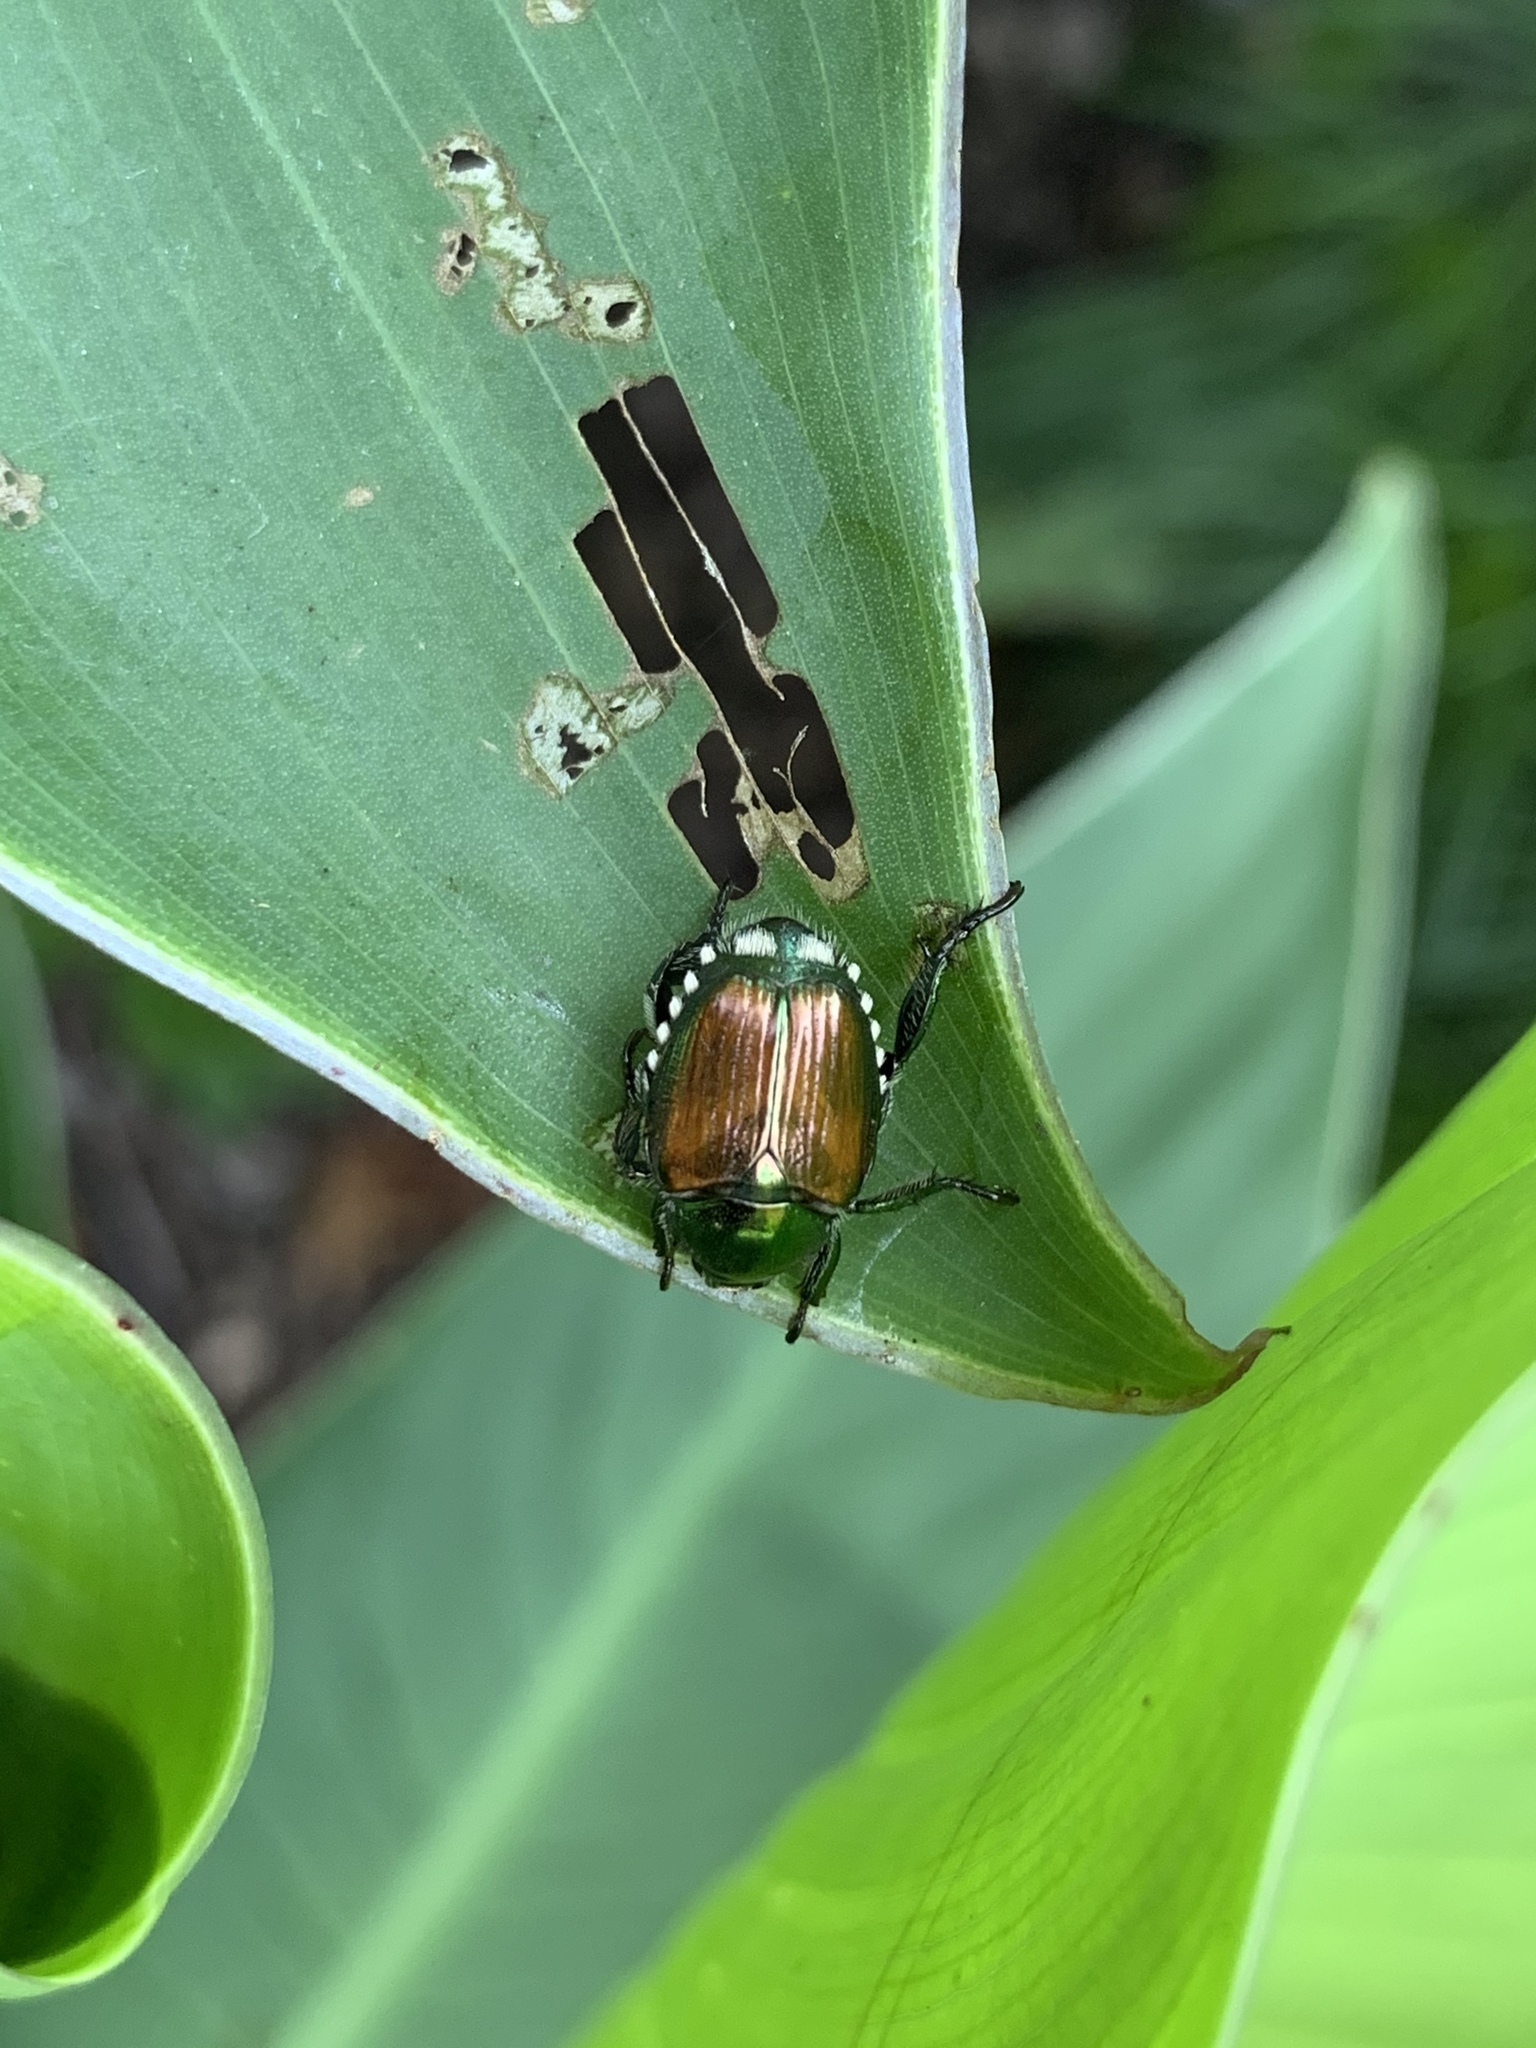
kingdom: Animalia
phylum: Arthropoda
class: Insecta
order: Coleoptera
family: Scarabaeidae
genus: Popillia
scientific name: Popillia japonica
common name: Japanese beetle
